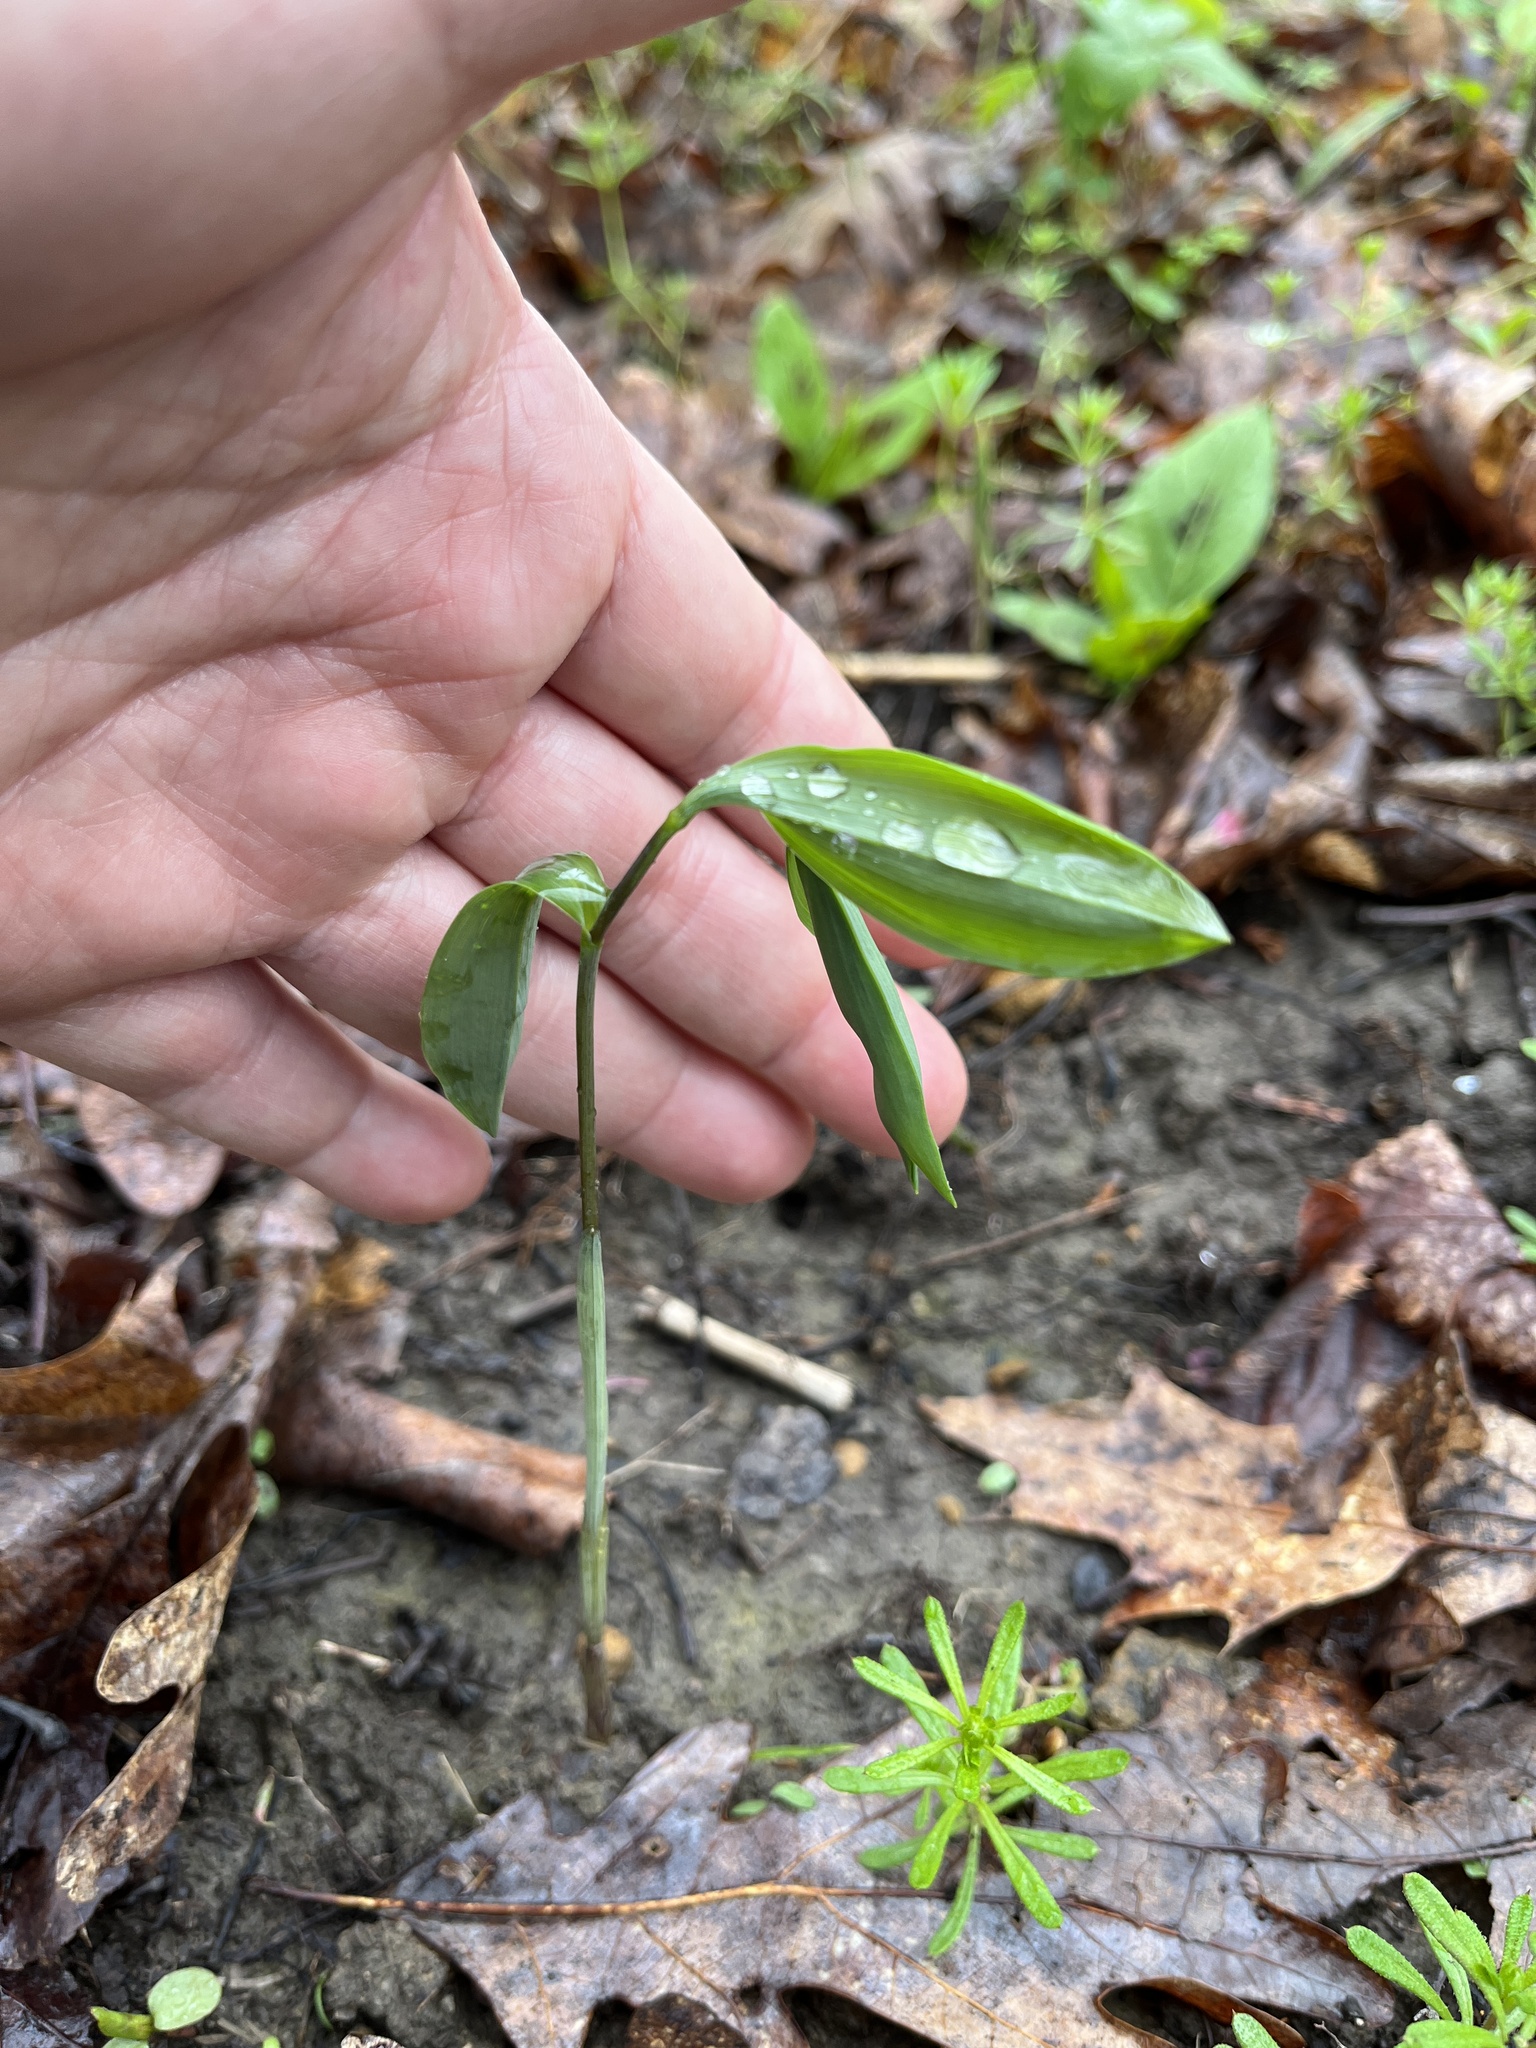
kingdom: Plantae
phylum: Tracheophyta
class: Liliopsida
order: Liliales
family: Colchicaceae
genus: Uvularia
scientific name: Uvularia sessilifolia
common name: Straw-lily
